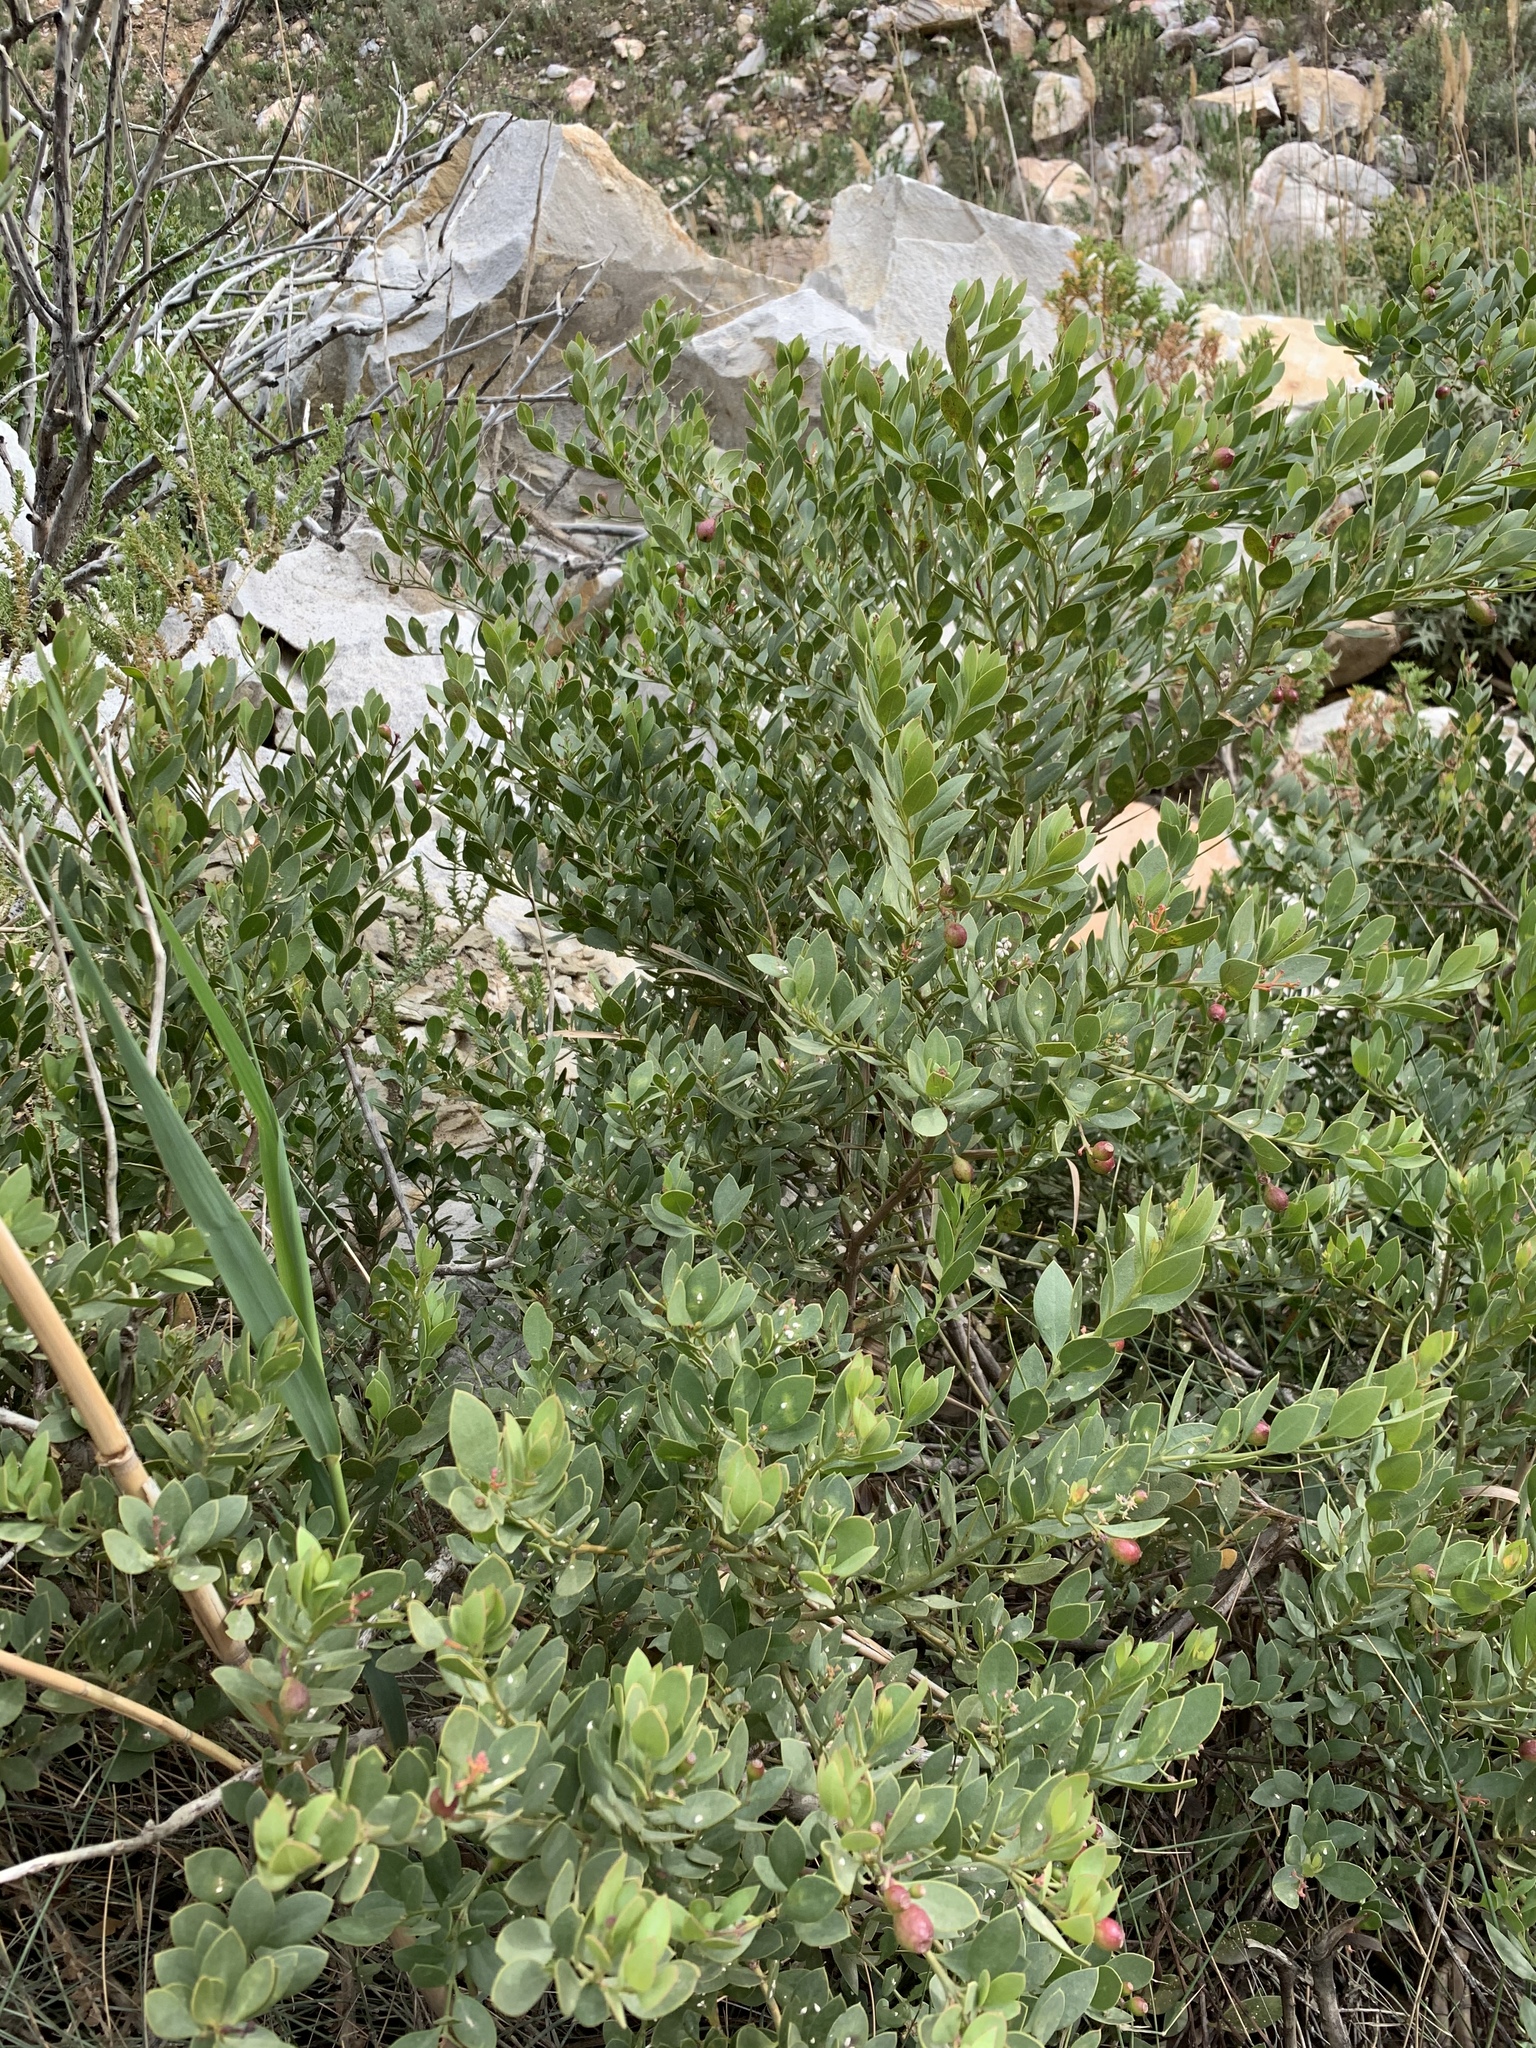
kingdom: Plantae
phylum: Tracheophyta
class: Magnoliopsida
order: Santalales
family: Santalaceae
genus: Osyris
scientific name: Osyris compressa
